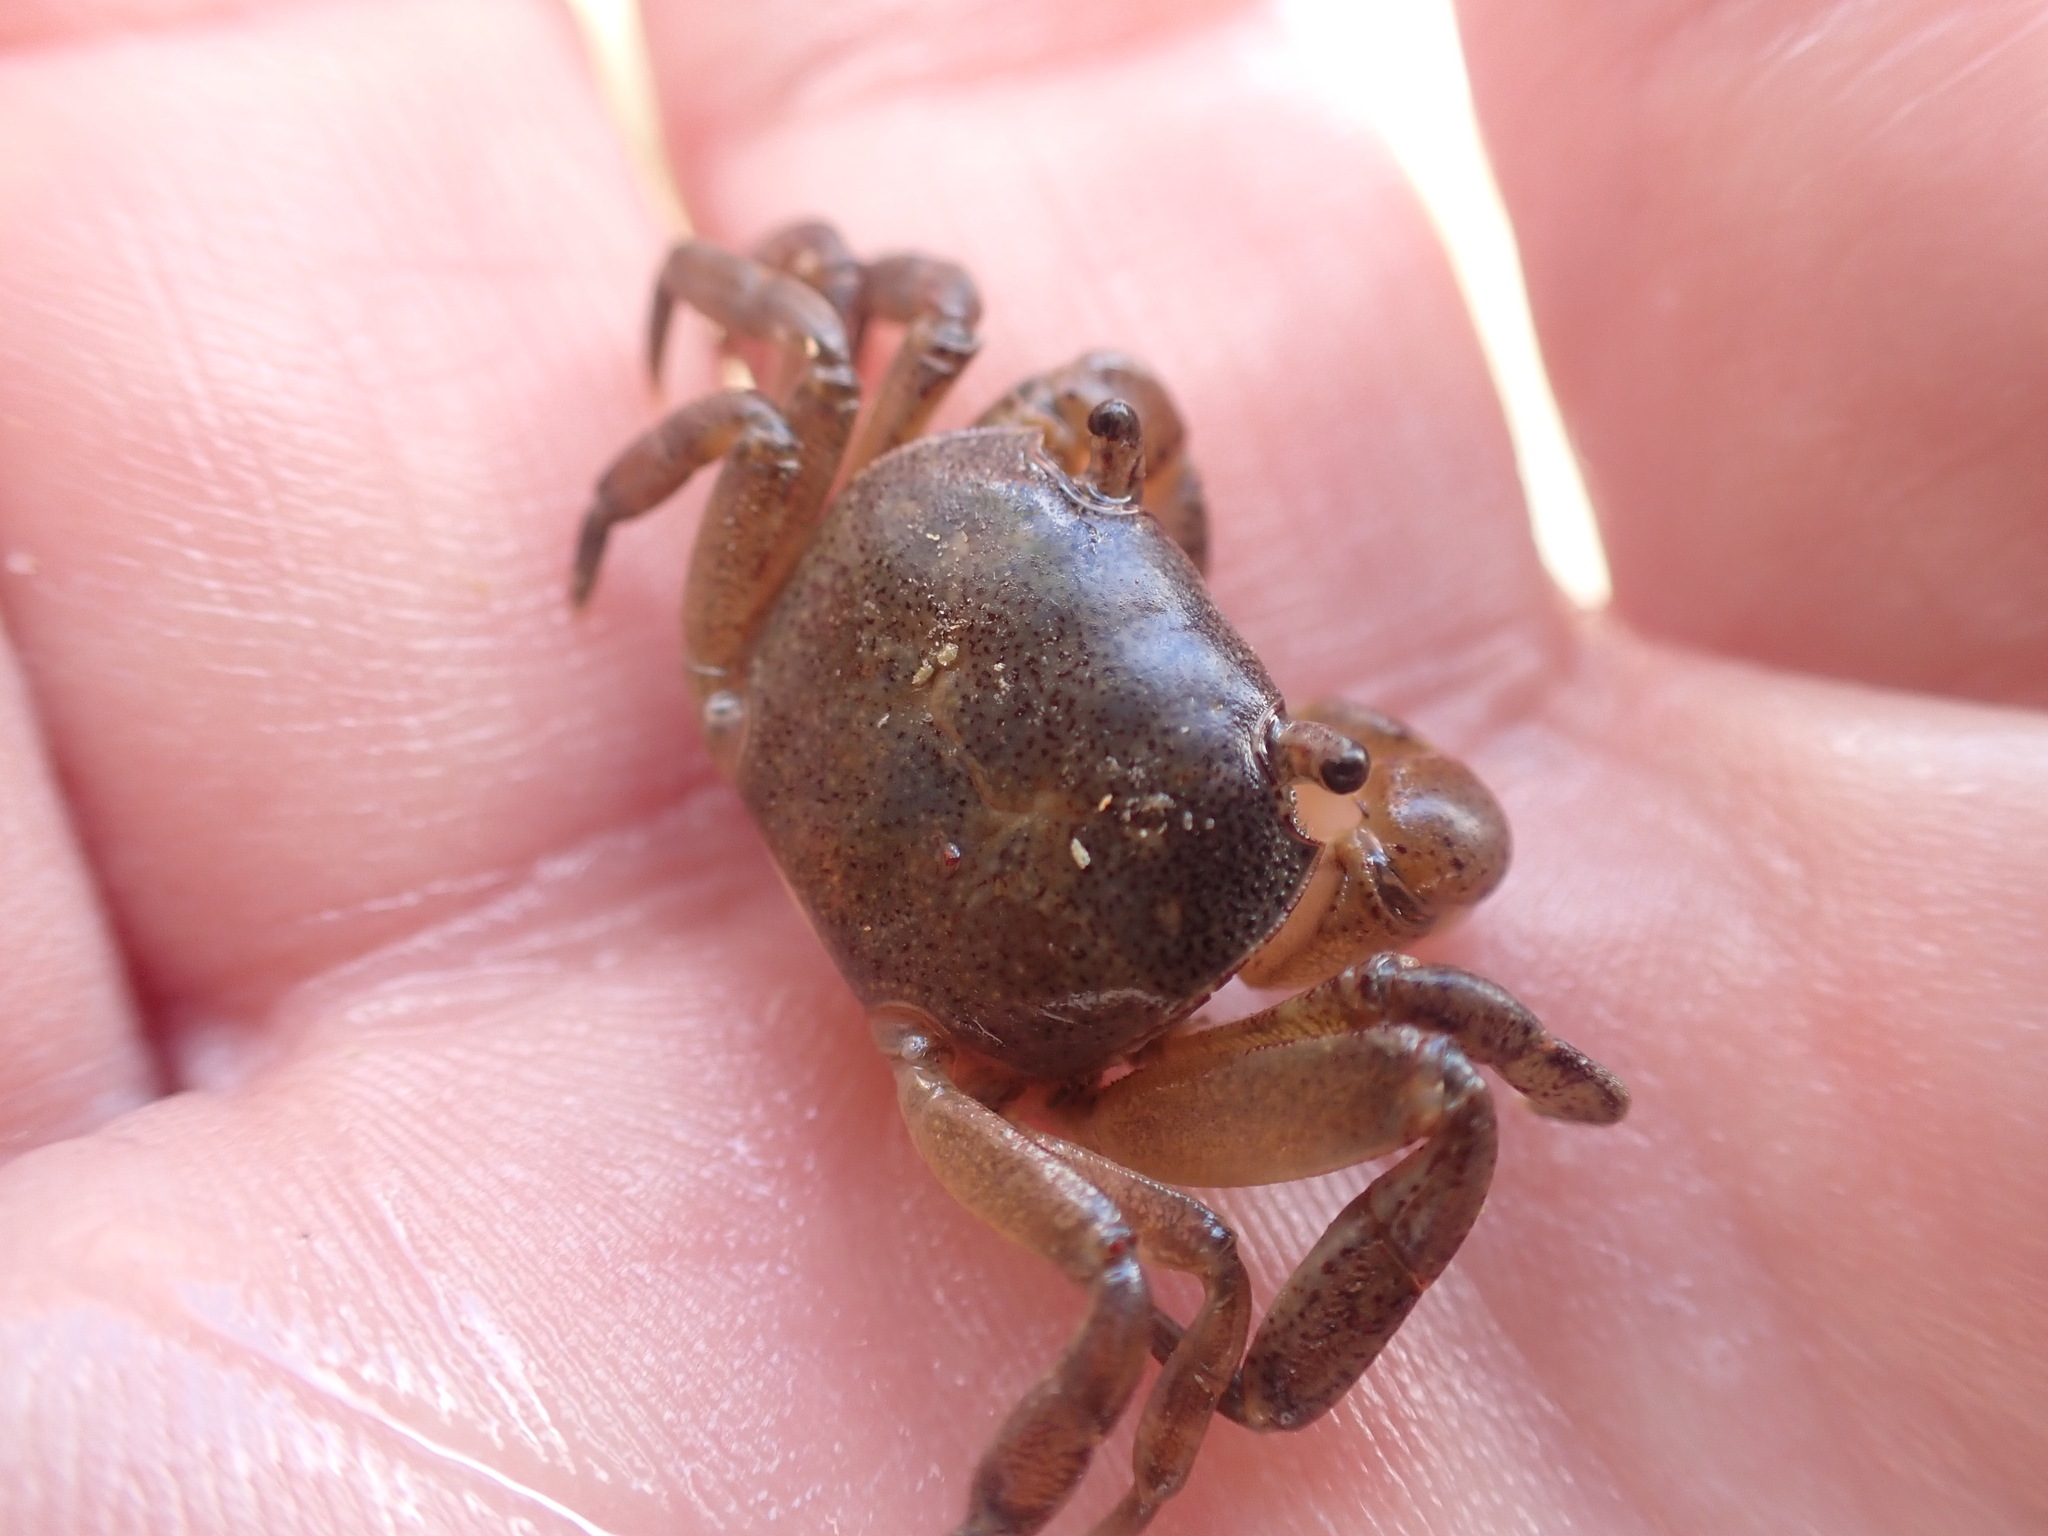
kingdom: Animalia
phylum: Arthropoda
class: Malacostraca
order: Decapoda
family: Varunidae
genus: Cyclograpsus
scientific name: Cyclograpsus lavauxi
